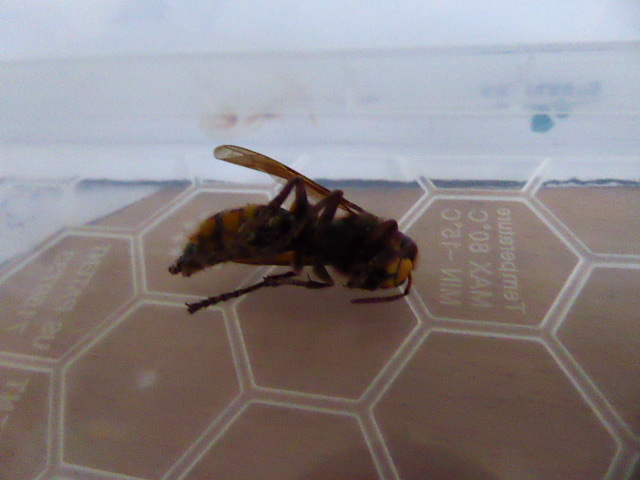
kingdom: Animalia
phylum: Arthropoda
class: Insecta
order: Hymenoptera
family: Vespidae
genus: Vespa
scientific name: Vespa crabro
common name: Hornet
